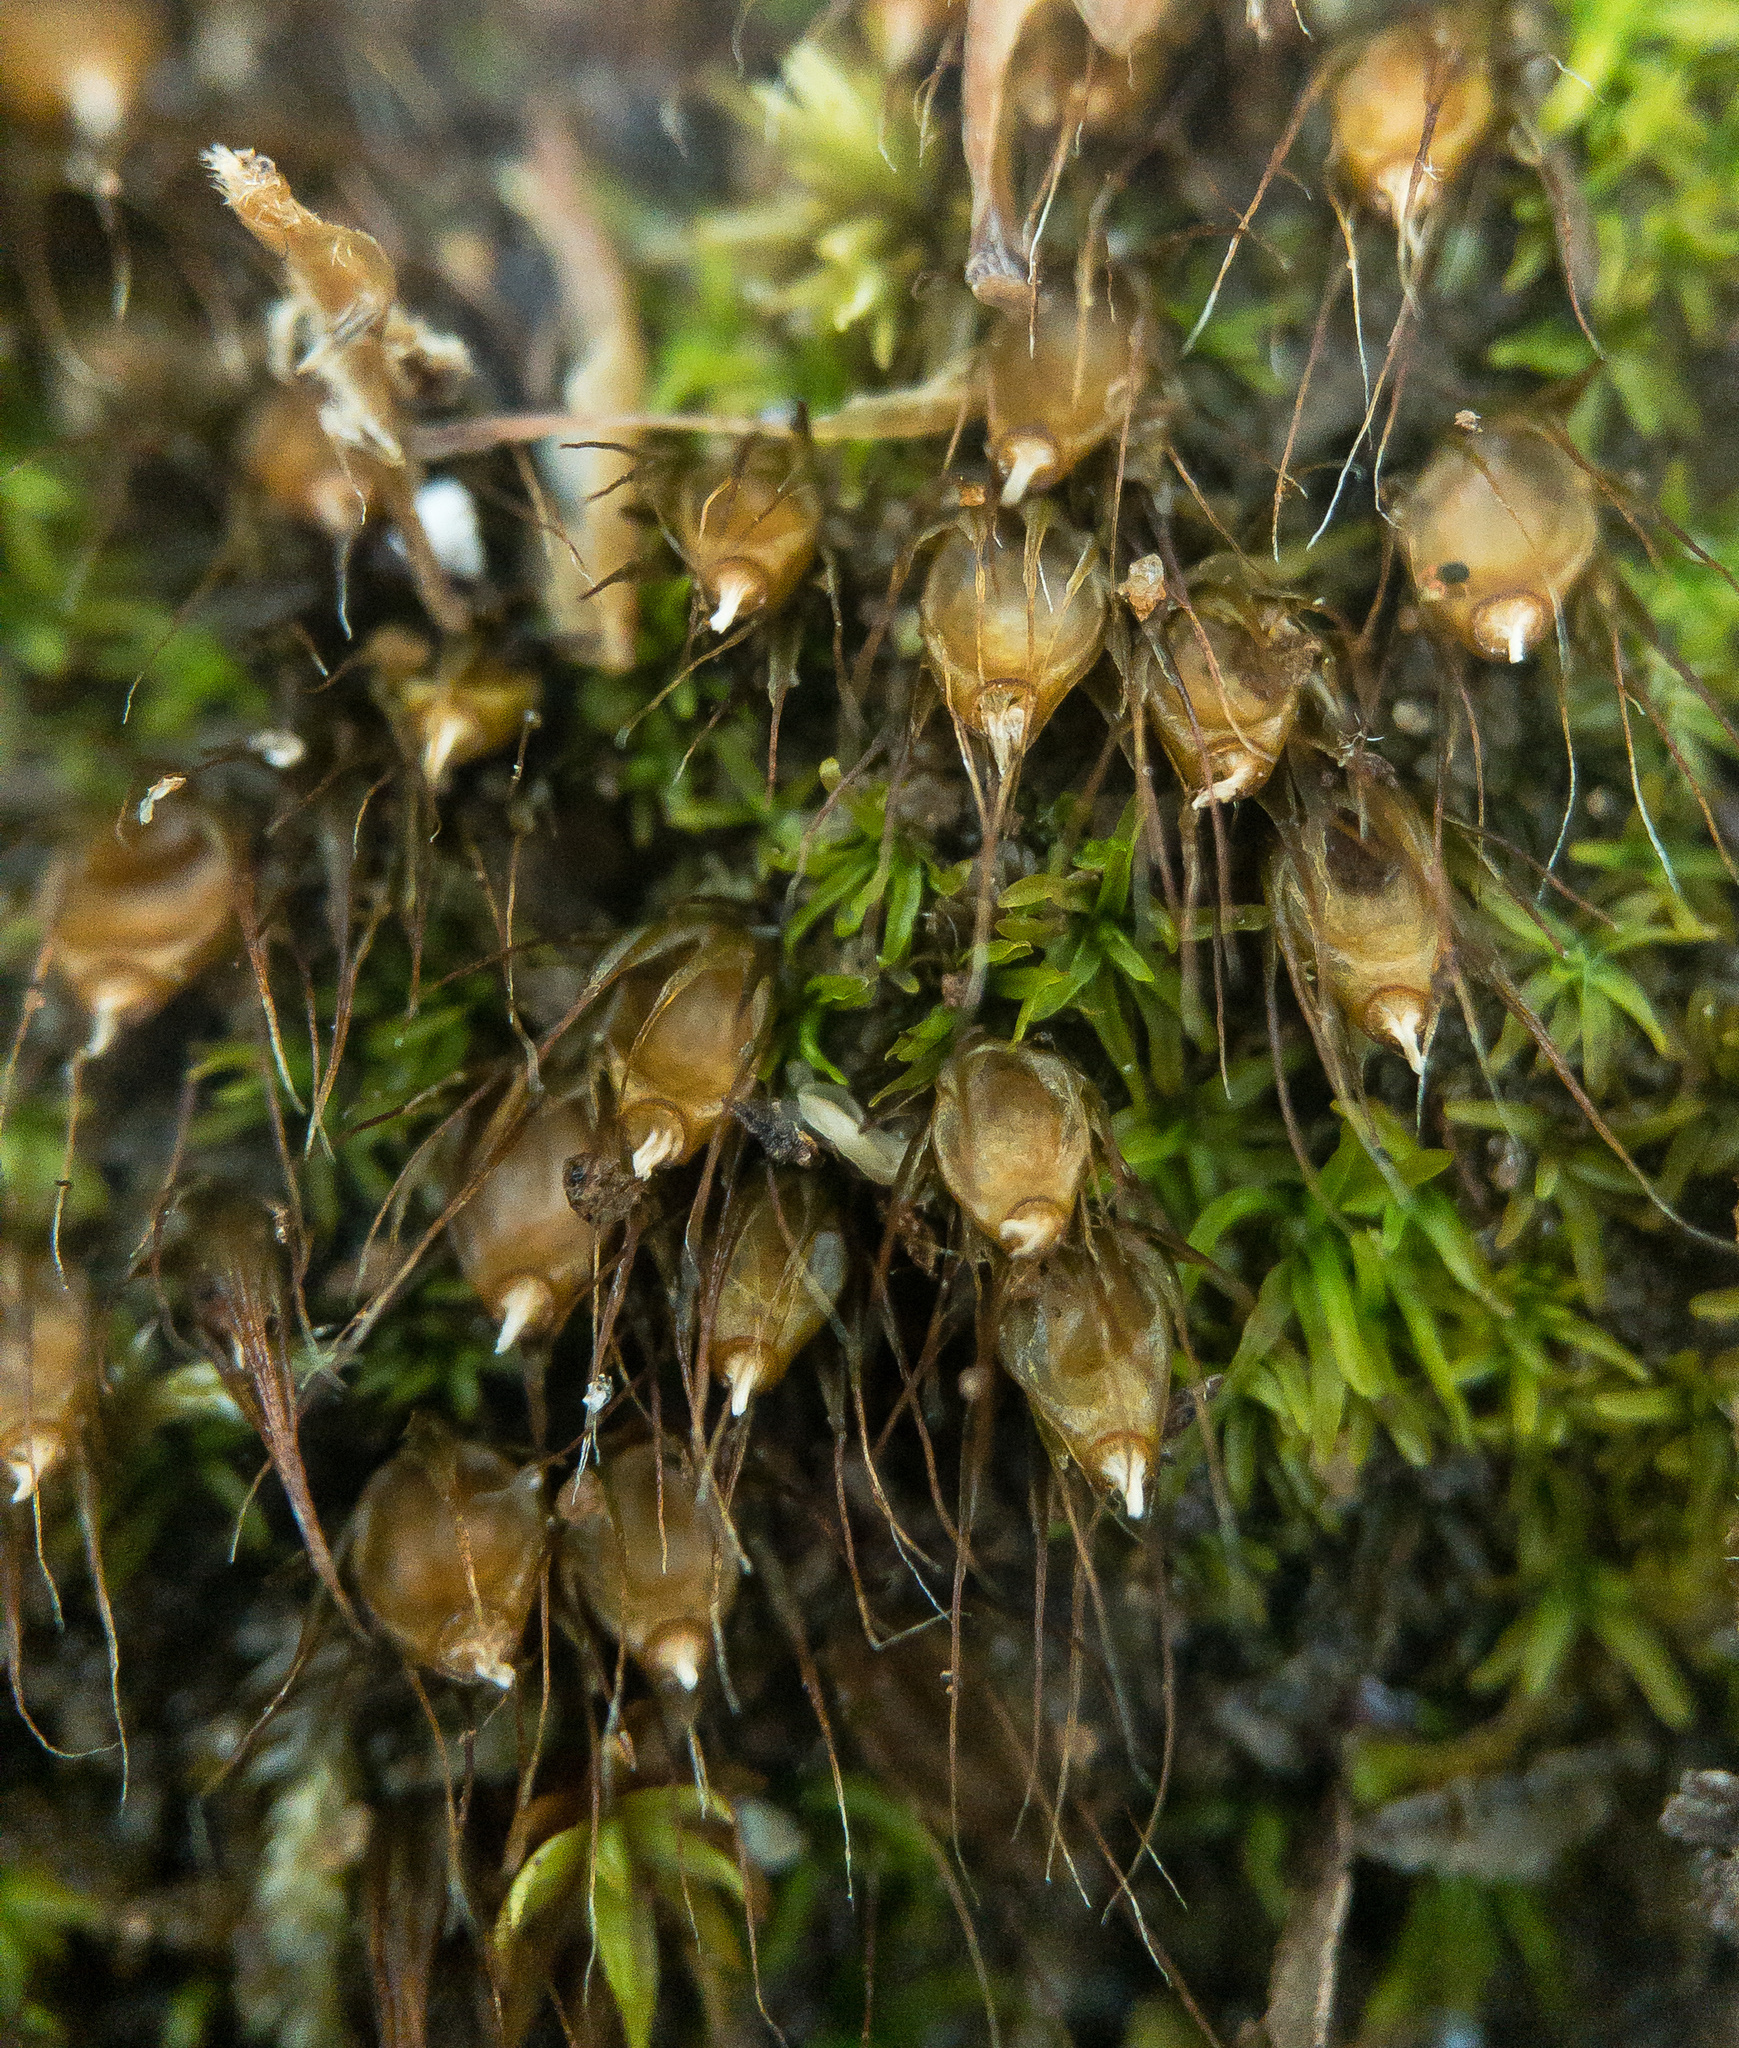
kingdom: Plantae
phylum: Bryophyta
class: Bryopsida
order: Diphysciales
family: Diphysciaceae
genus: Diphyscium
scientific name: Diphyscium foliosum
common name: Nut moss
